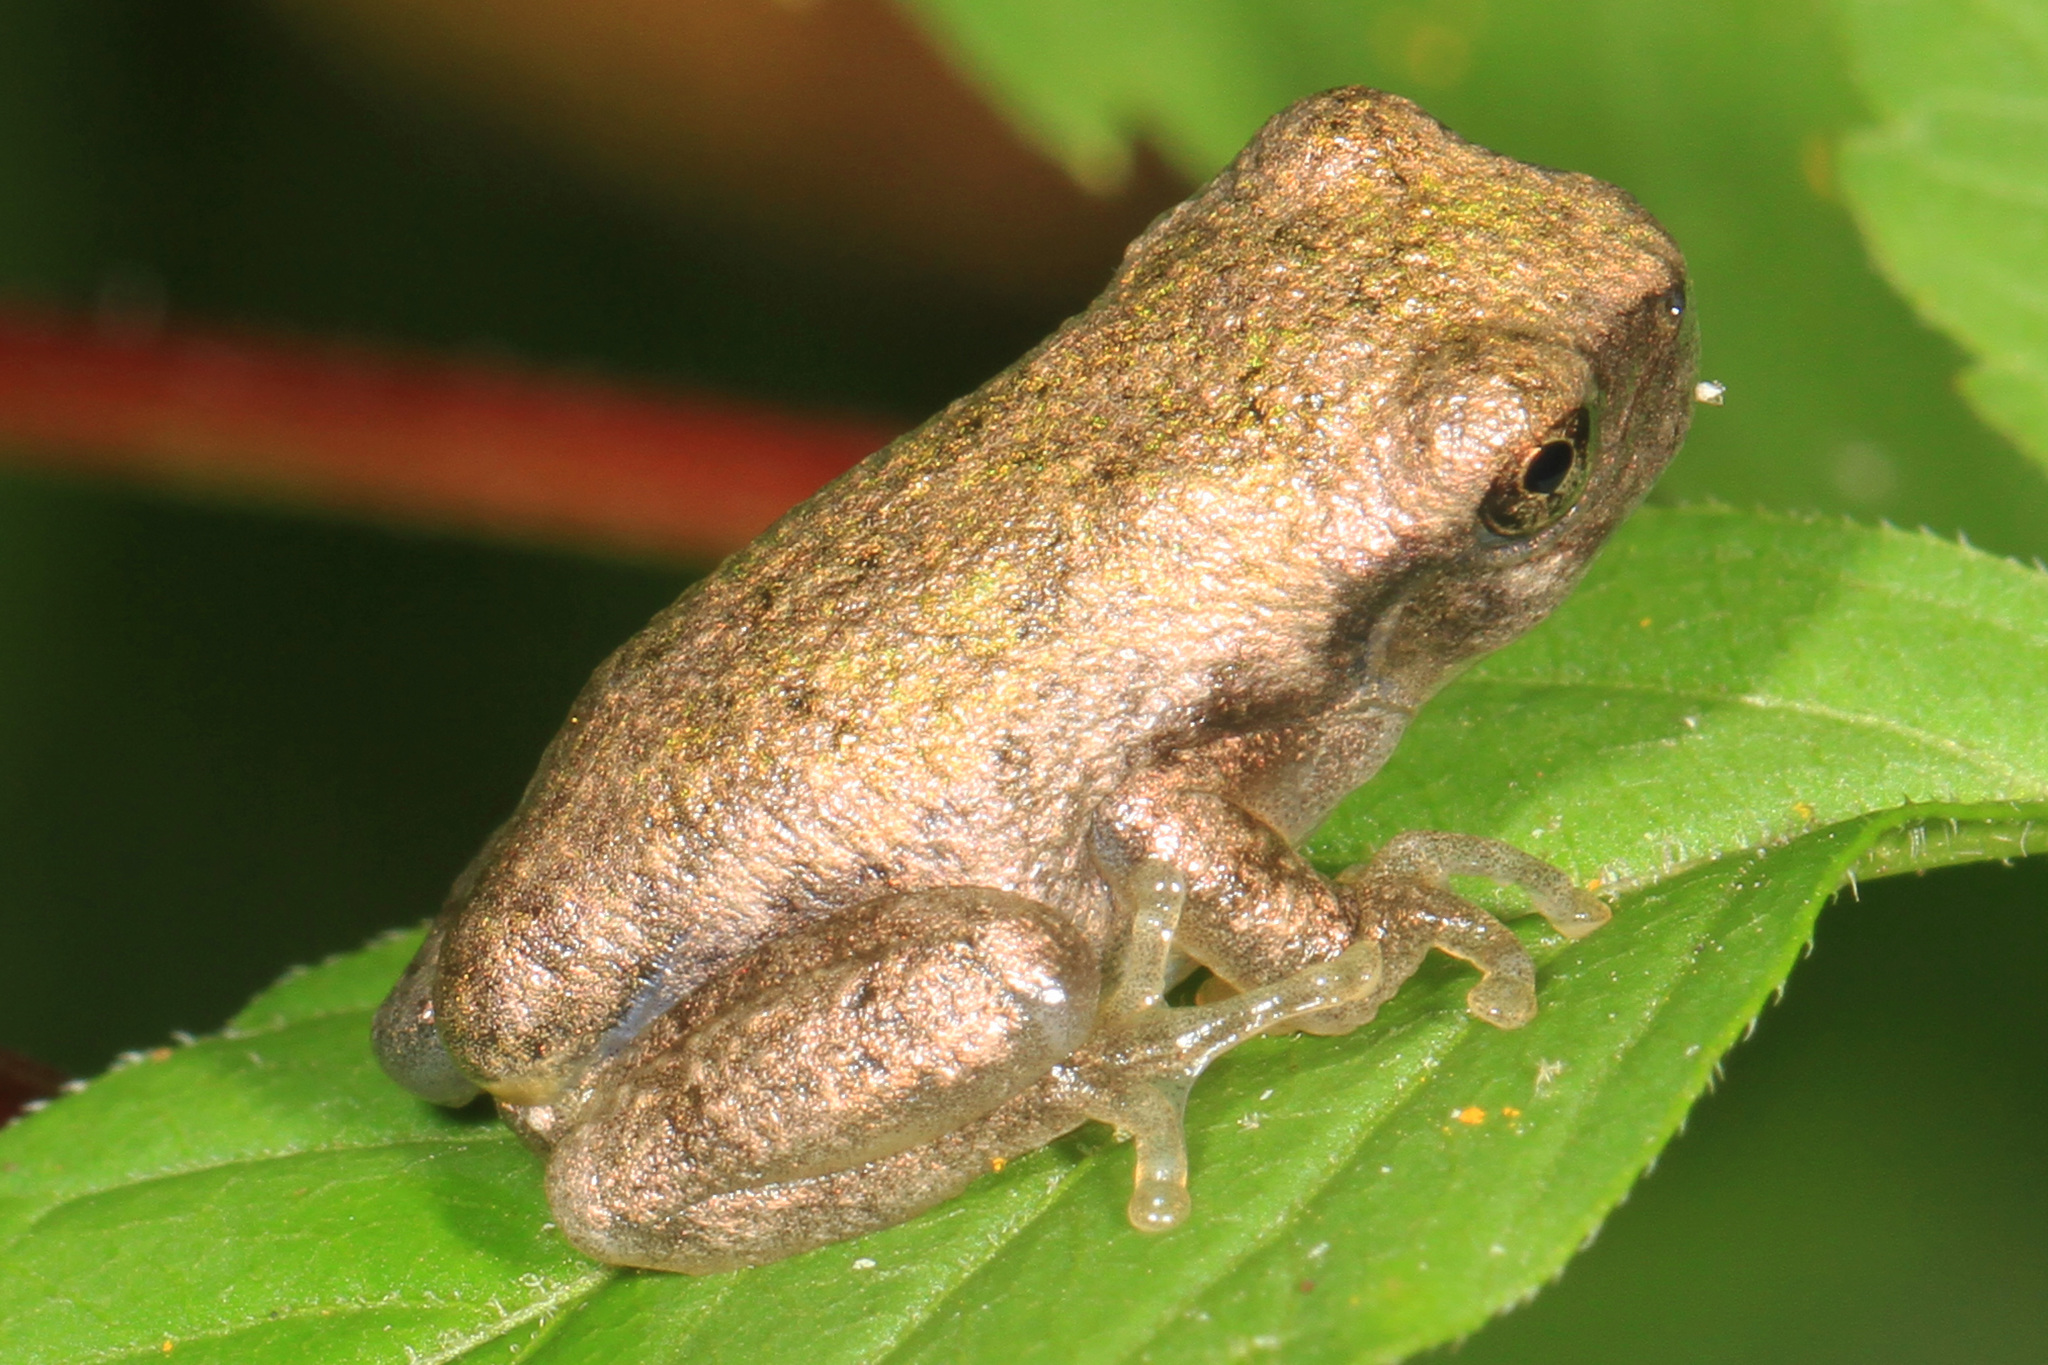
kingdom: Animalia
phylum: Chordata
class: Amphibia
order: Anura
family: Hylidae
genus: Dryophytes
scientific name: Dryophytes chrysoscelis
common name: Cope's gray treefrog
